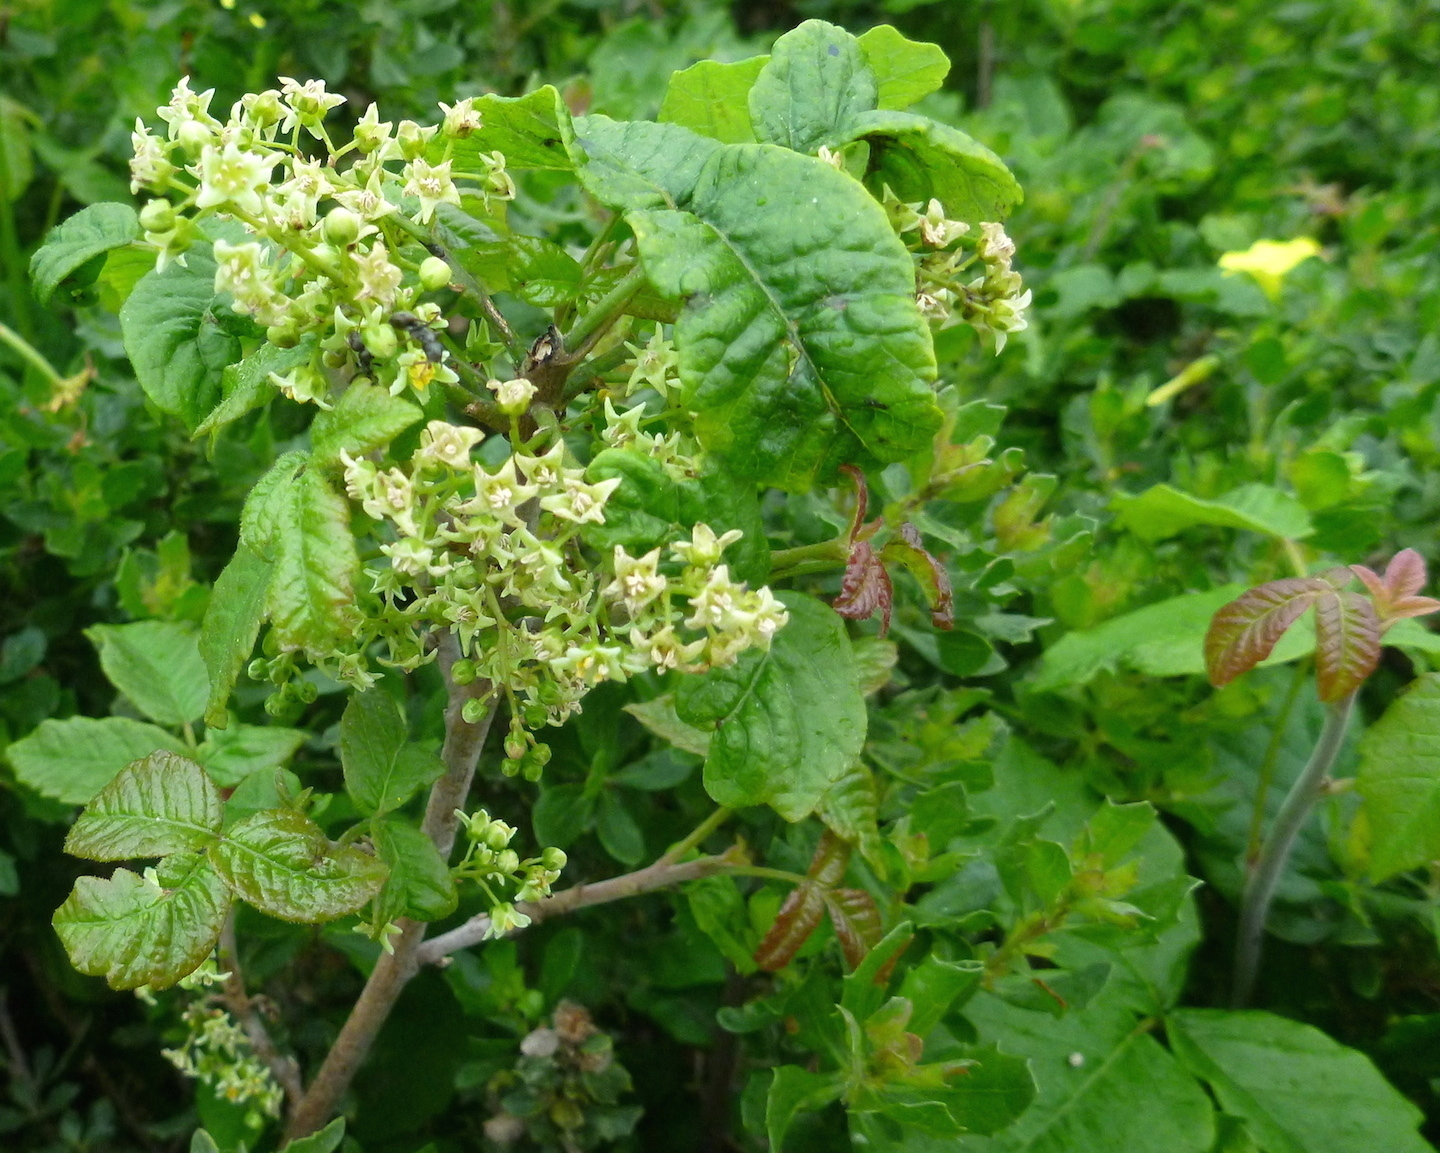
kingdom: Plantae
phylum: Tracheophyta
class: Magnoliopsida
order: Sapindales
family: Anacardiaceae
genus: Toxicodendron
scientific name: Toxicodendron diversilobum
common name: Pacific poison-oak
